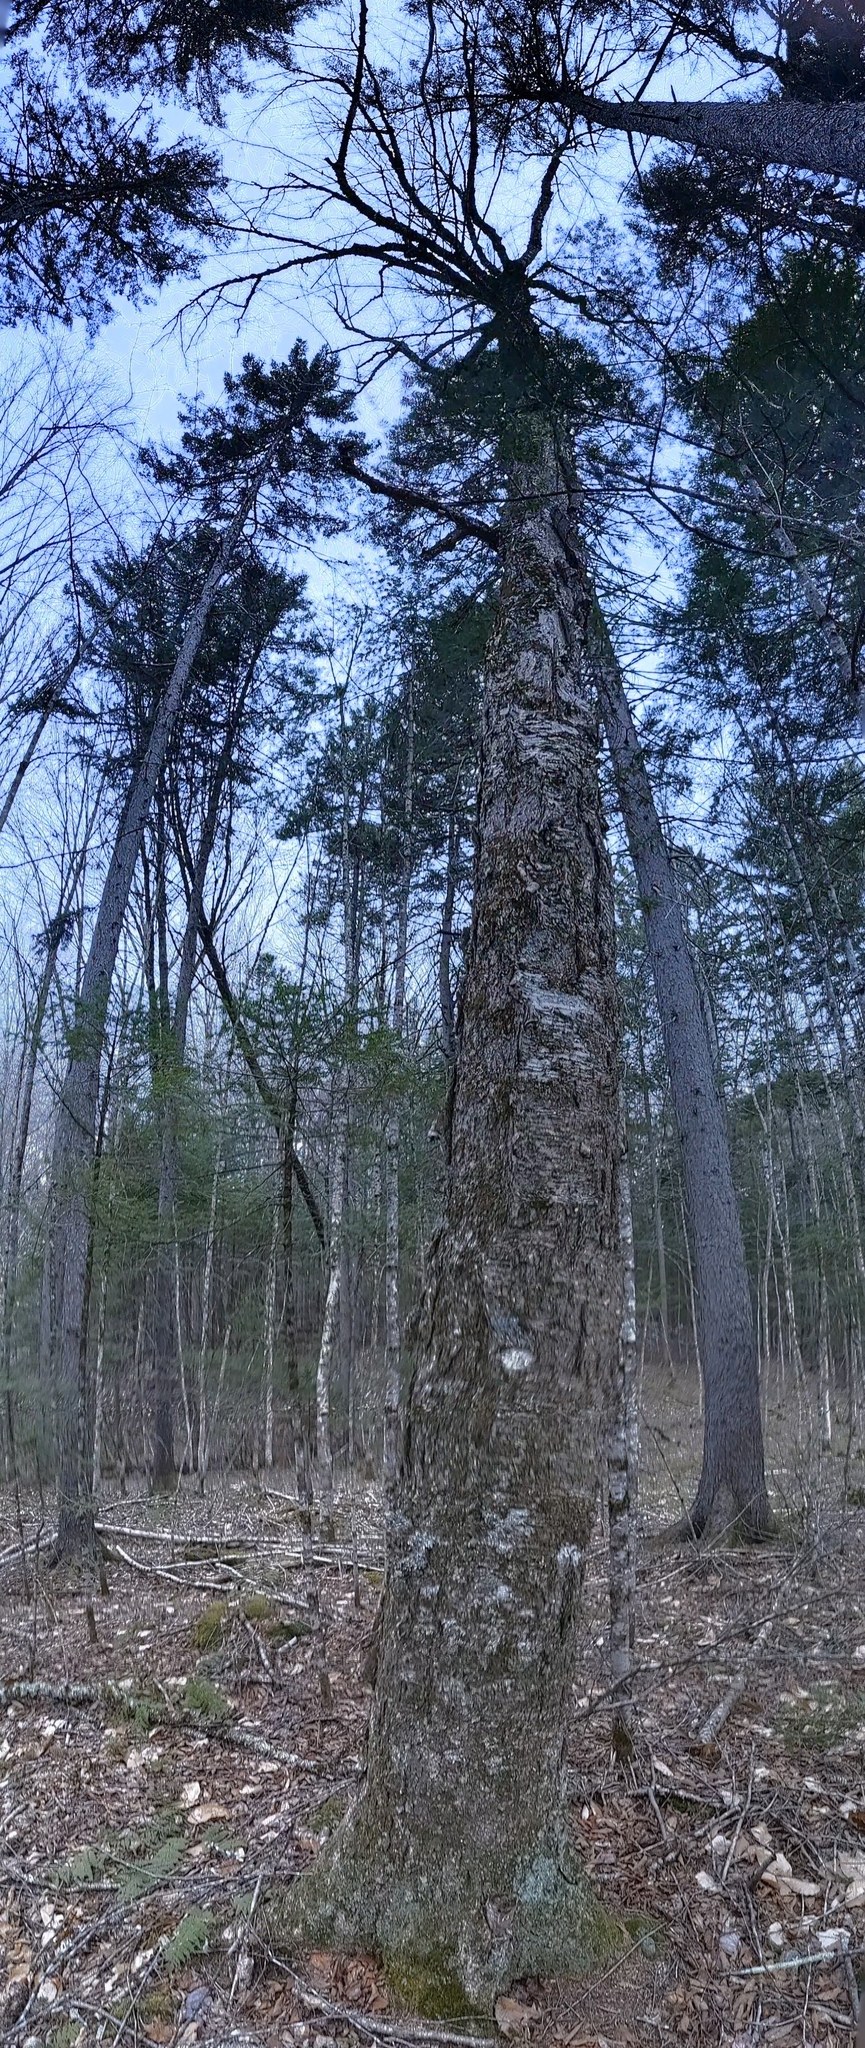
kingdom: Plantae
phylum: Tracheophyta
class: Magnoliopsida
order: Fagales
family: Betulaceae
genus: Betula
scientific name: Betula alleghaniensis
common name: Yellow birch
